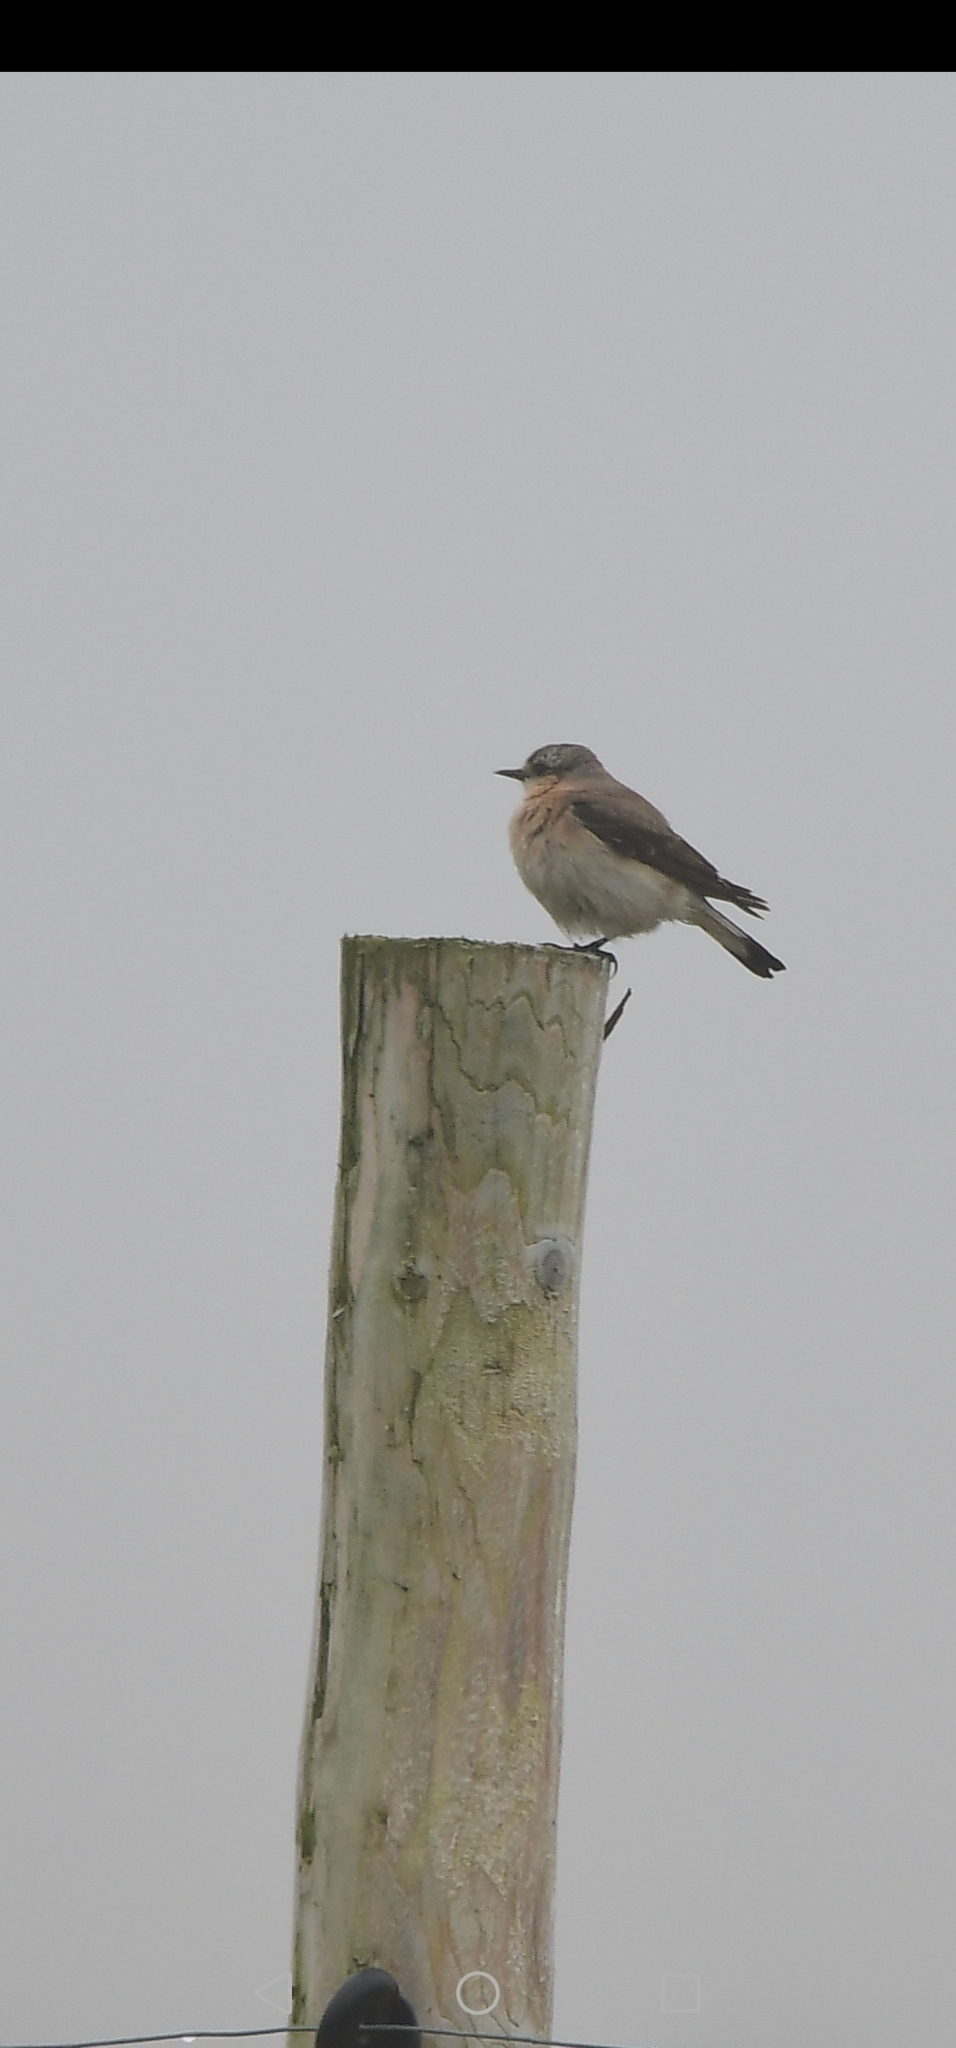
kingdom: Animalia
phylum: Chordata
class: Aves
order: Passeriformes
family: Muscicapidae
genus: Oenanthe
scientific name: Oenanthe oenanthe
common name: Northern wheatear
